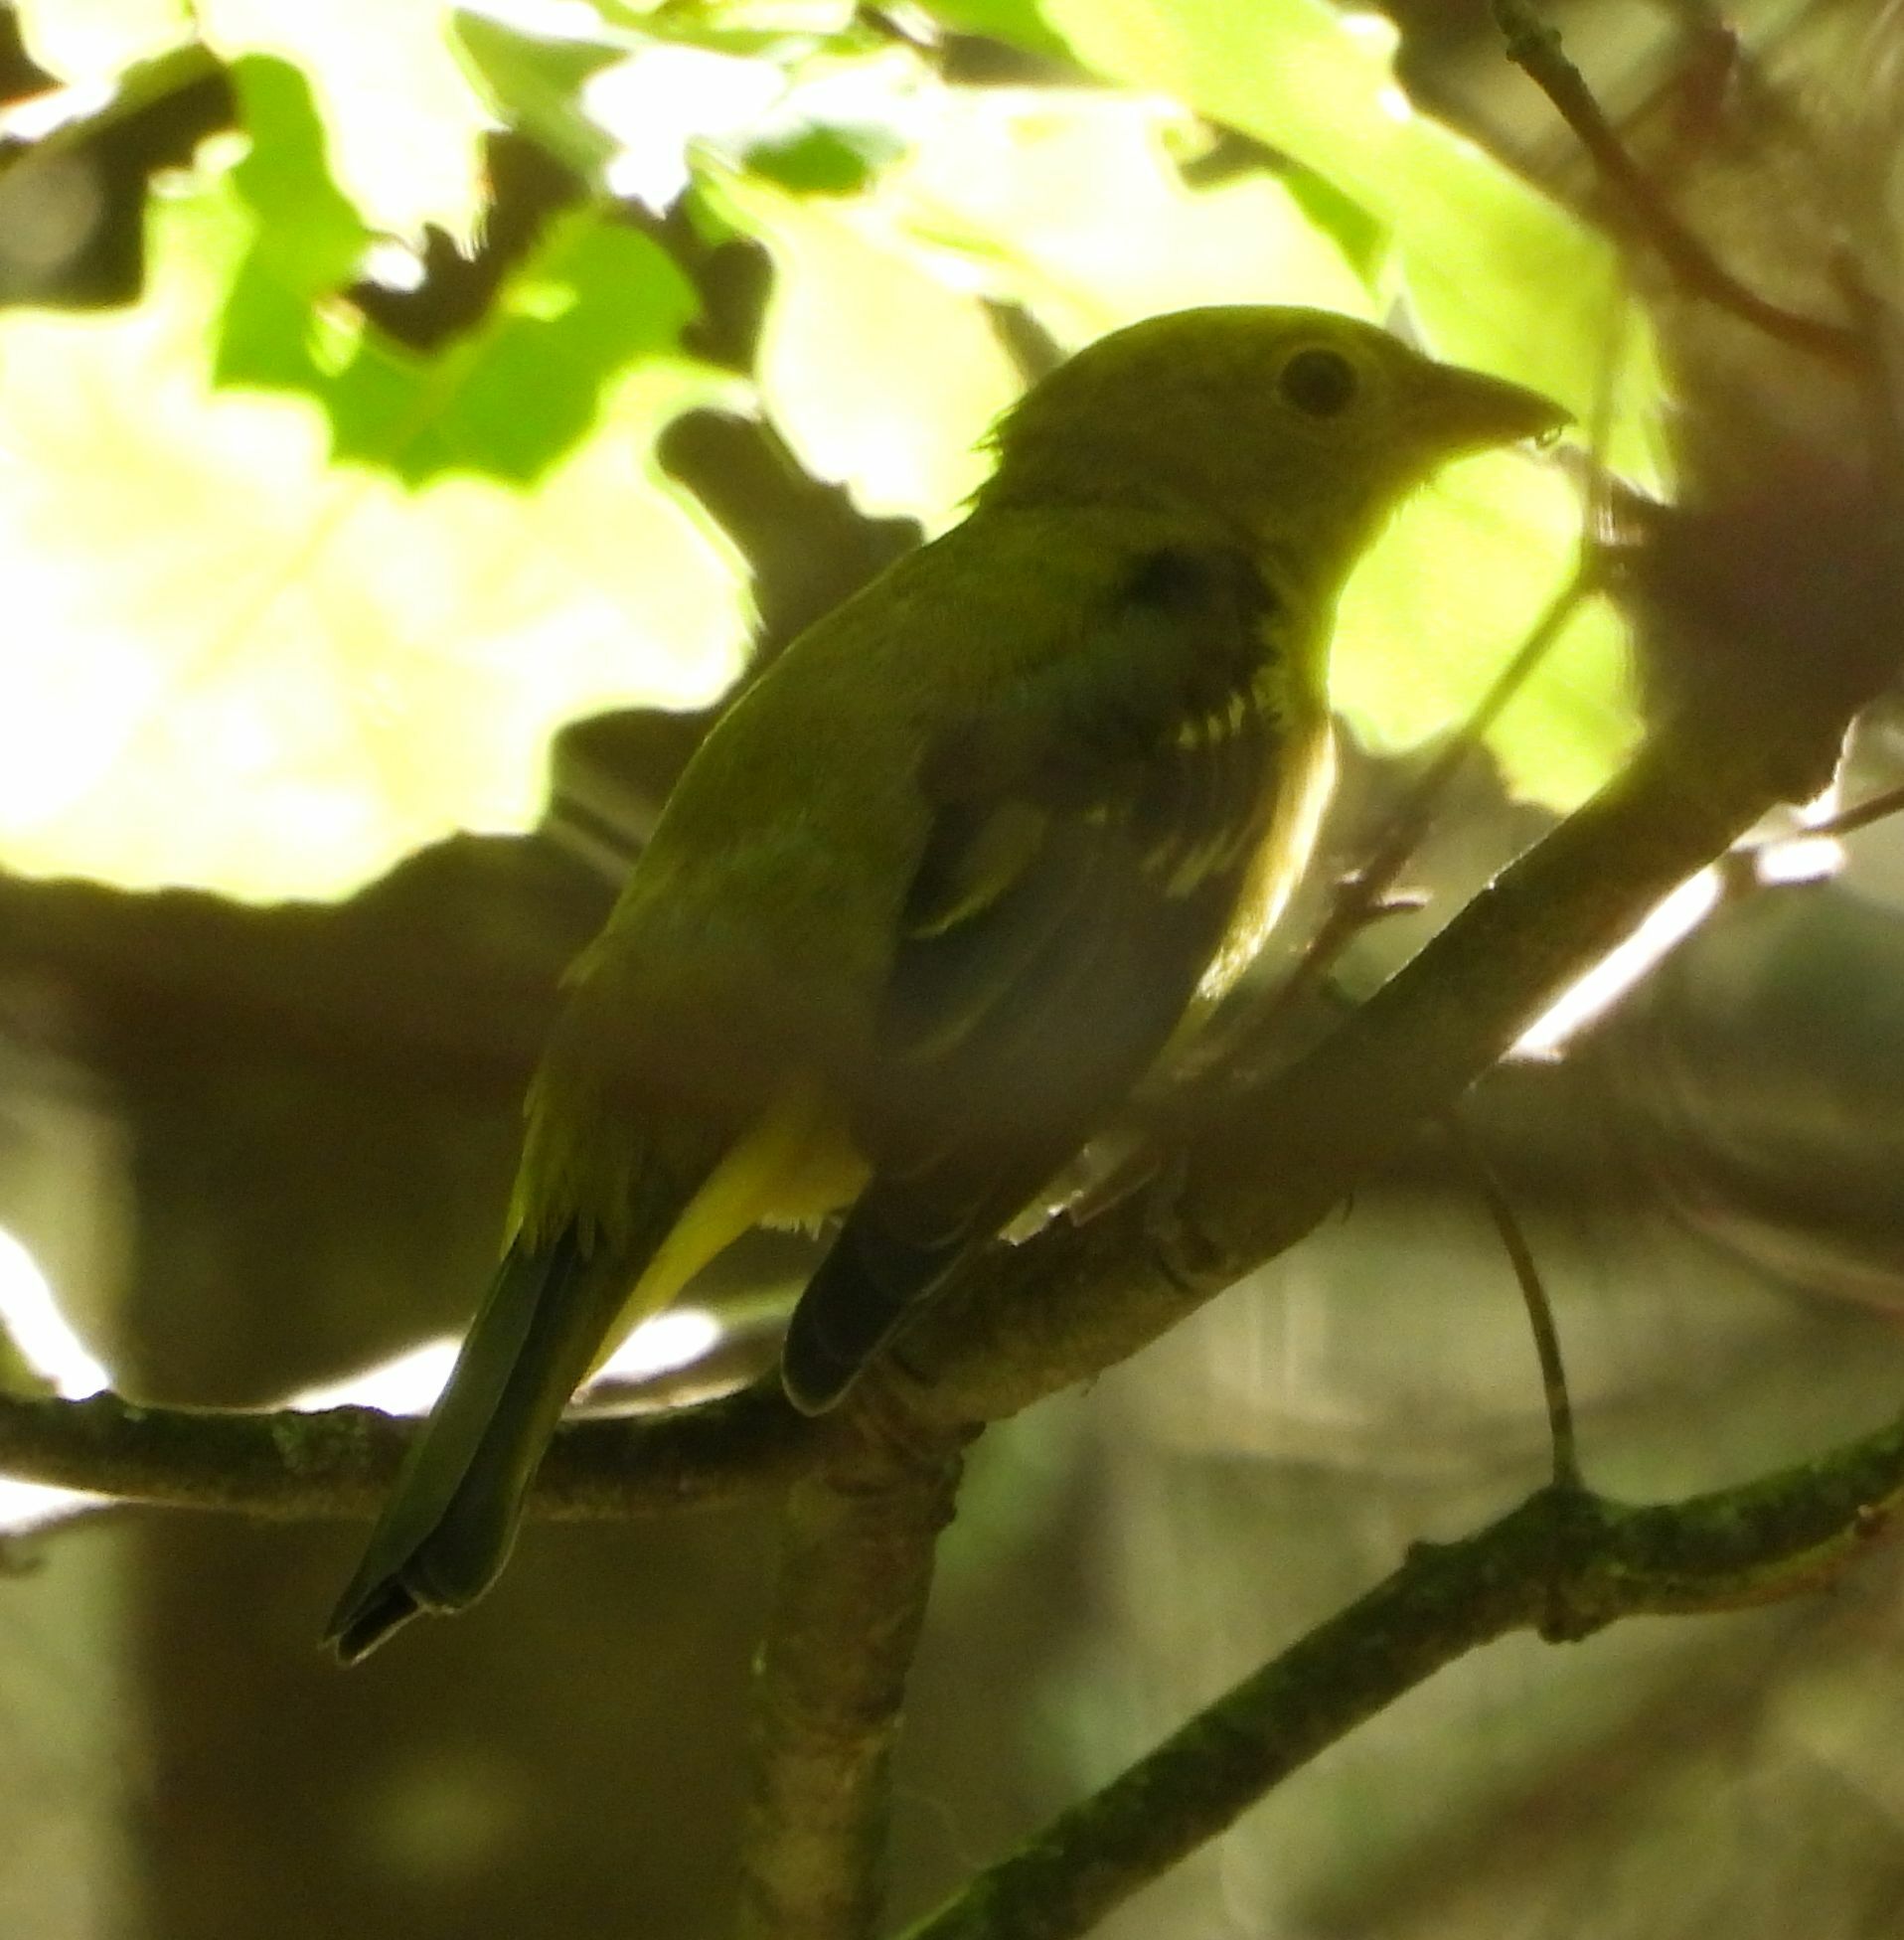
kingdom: Animalia
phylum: Chordata
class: Aves
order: Passeriformes
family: Cardinalidae
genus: Piranga
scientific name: Piranga olivacea
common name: Scarlet tanager
